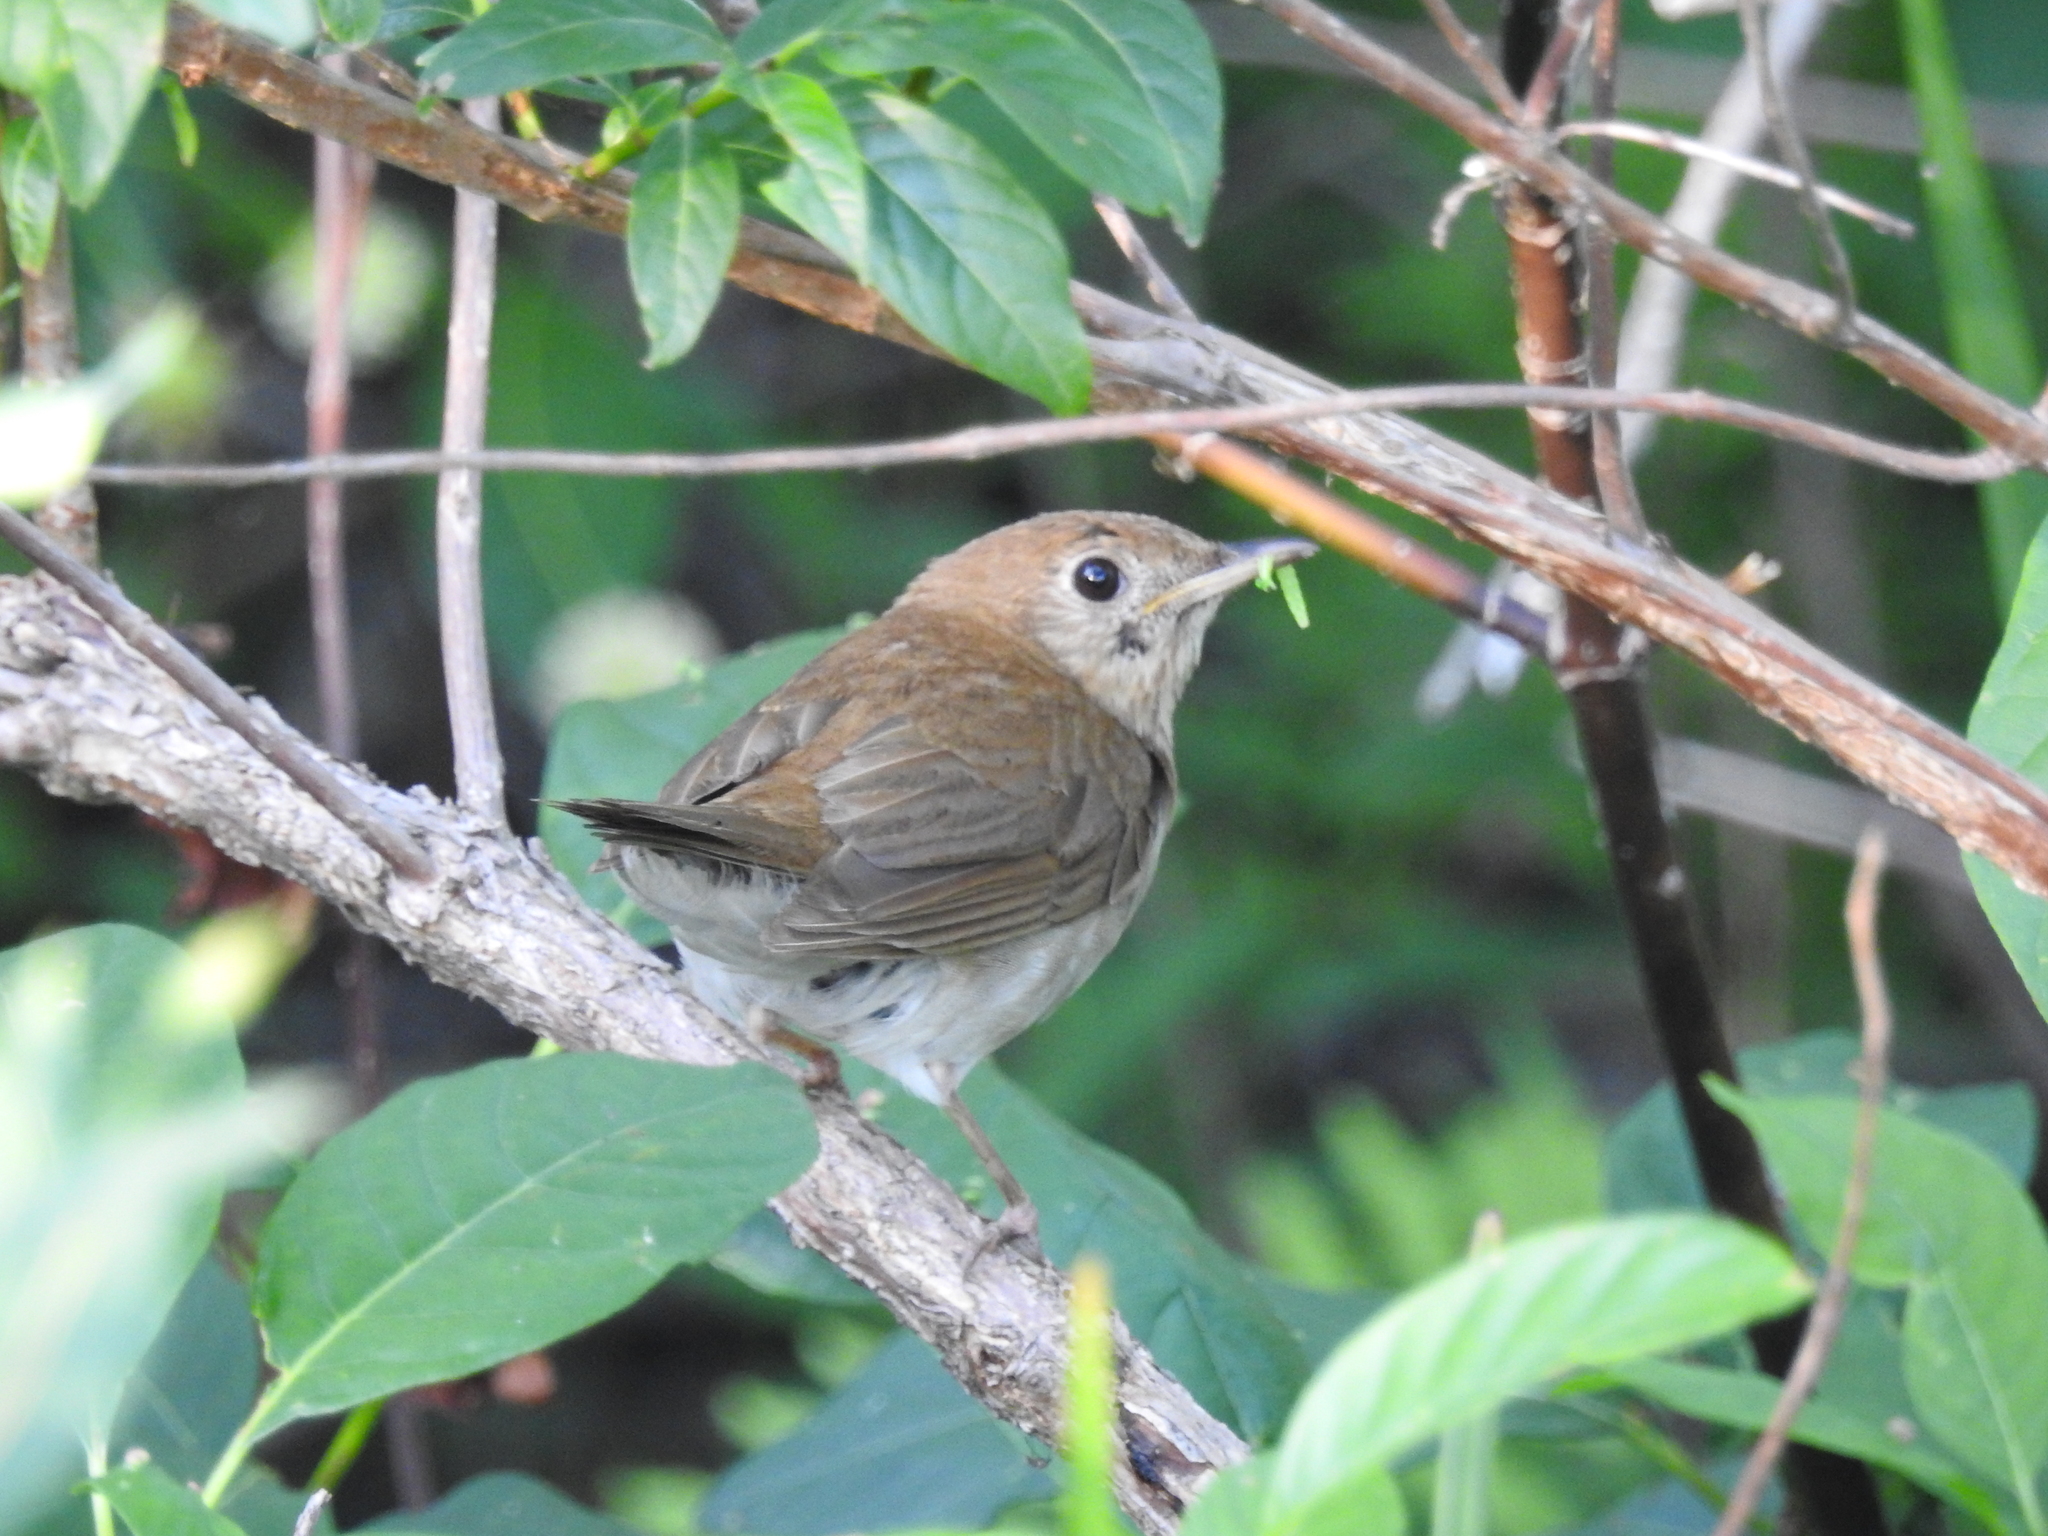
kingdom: Animalia
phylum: Chordata
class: Aves
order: Passeriformes
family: Turdidae
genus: Catharus
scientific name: Catharus fuscescens
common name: Veery
